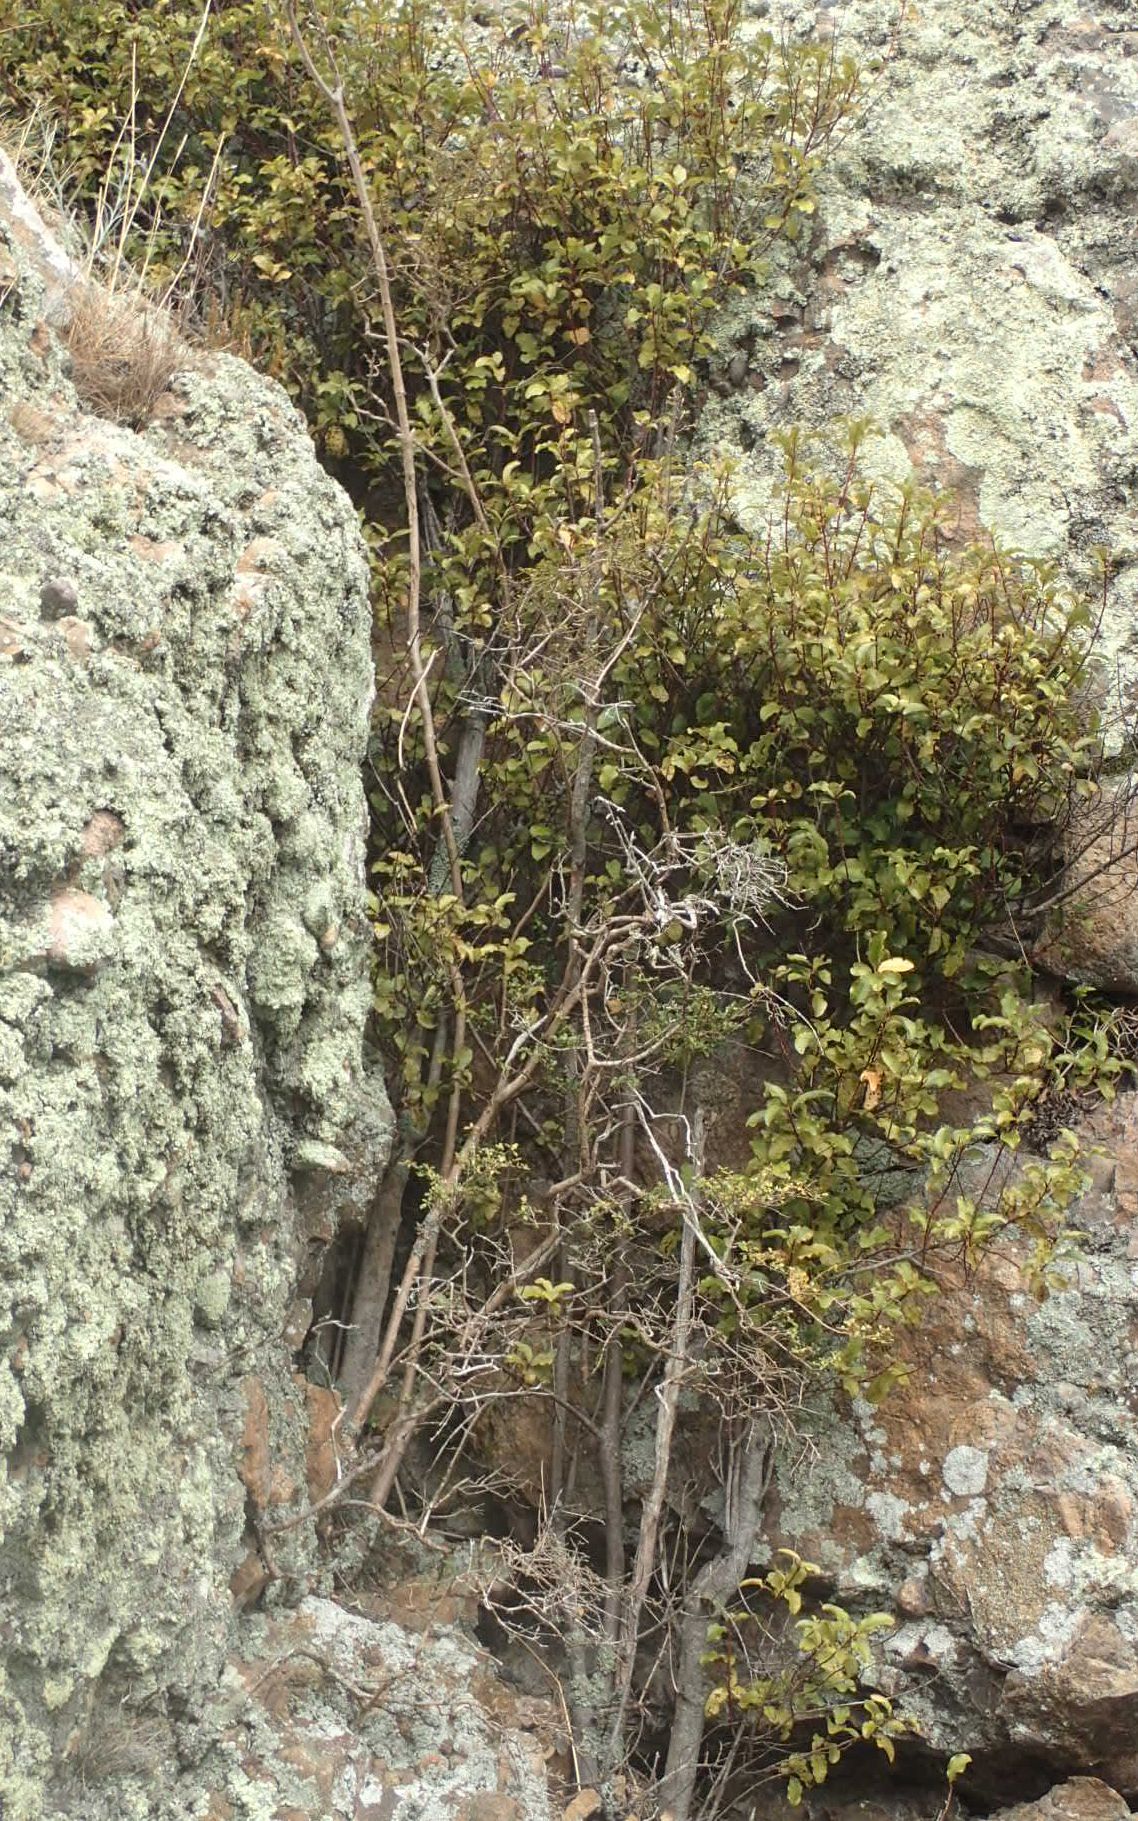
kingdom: Plantae
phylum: Tracheophyta
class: Magnoliopsida
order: Ericales
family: Primulaceae
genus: Myrsine
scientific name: Myrsine australis
